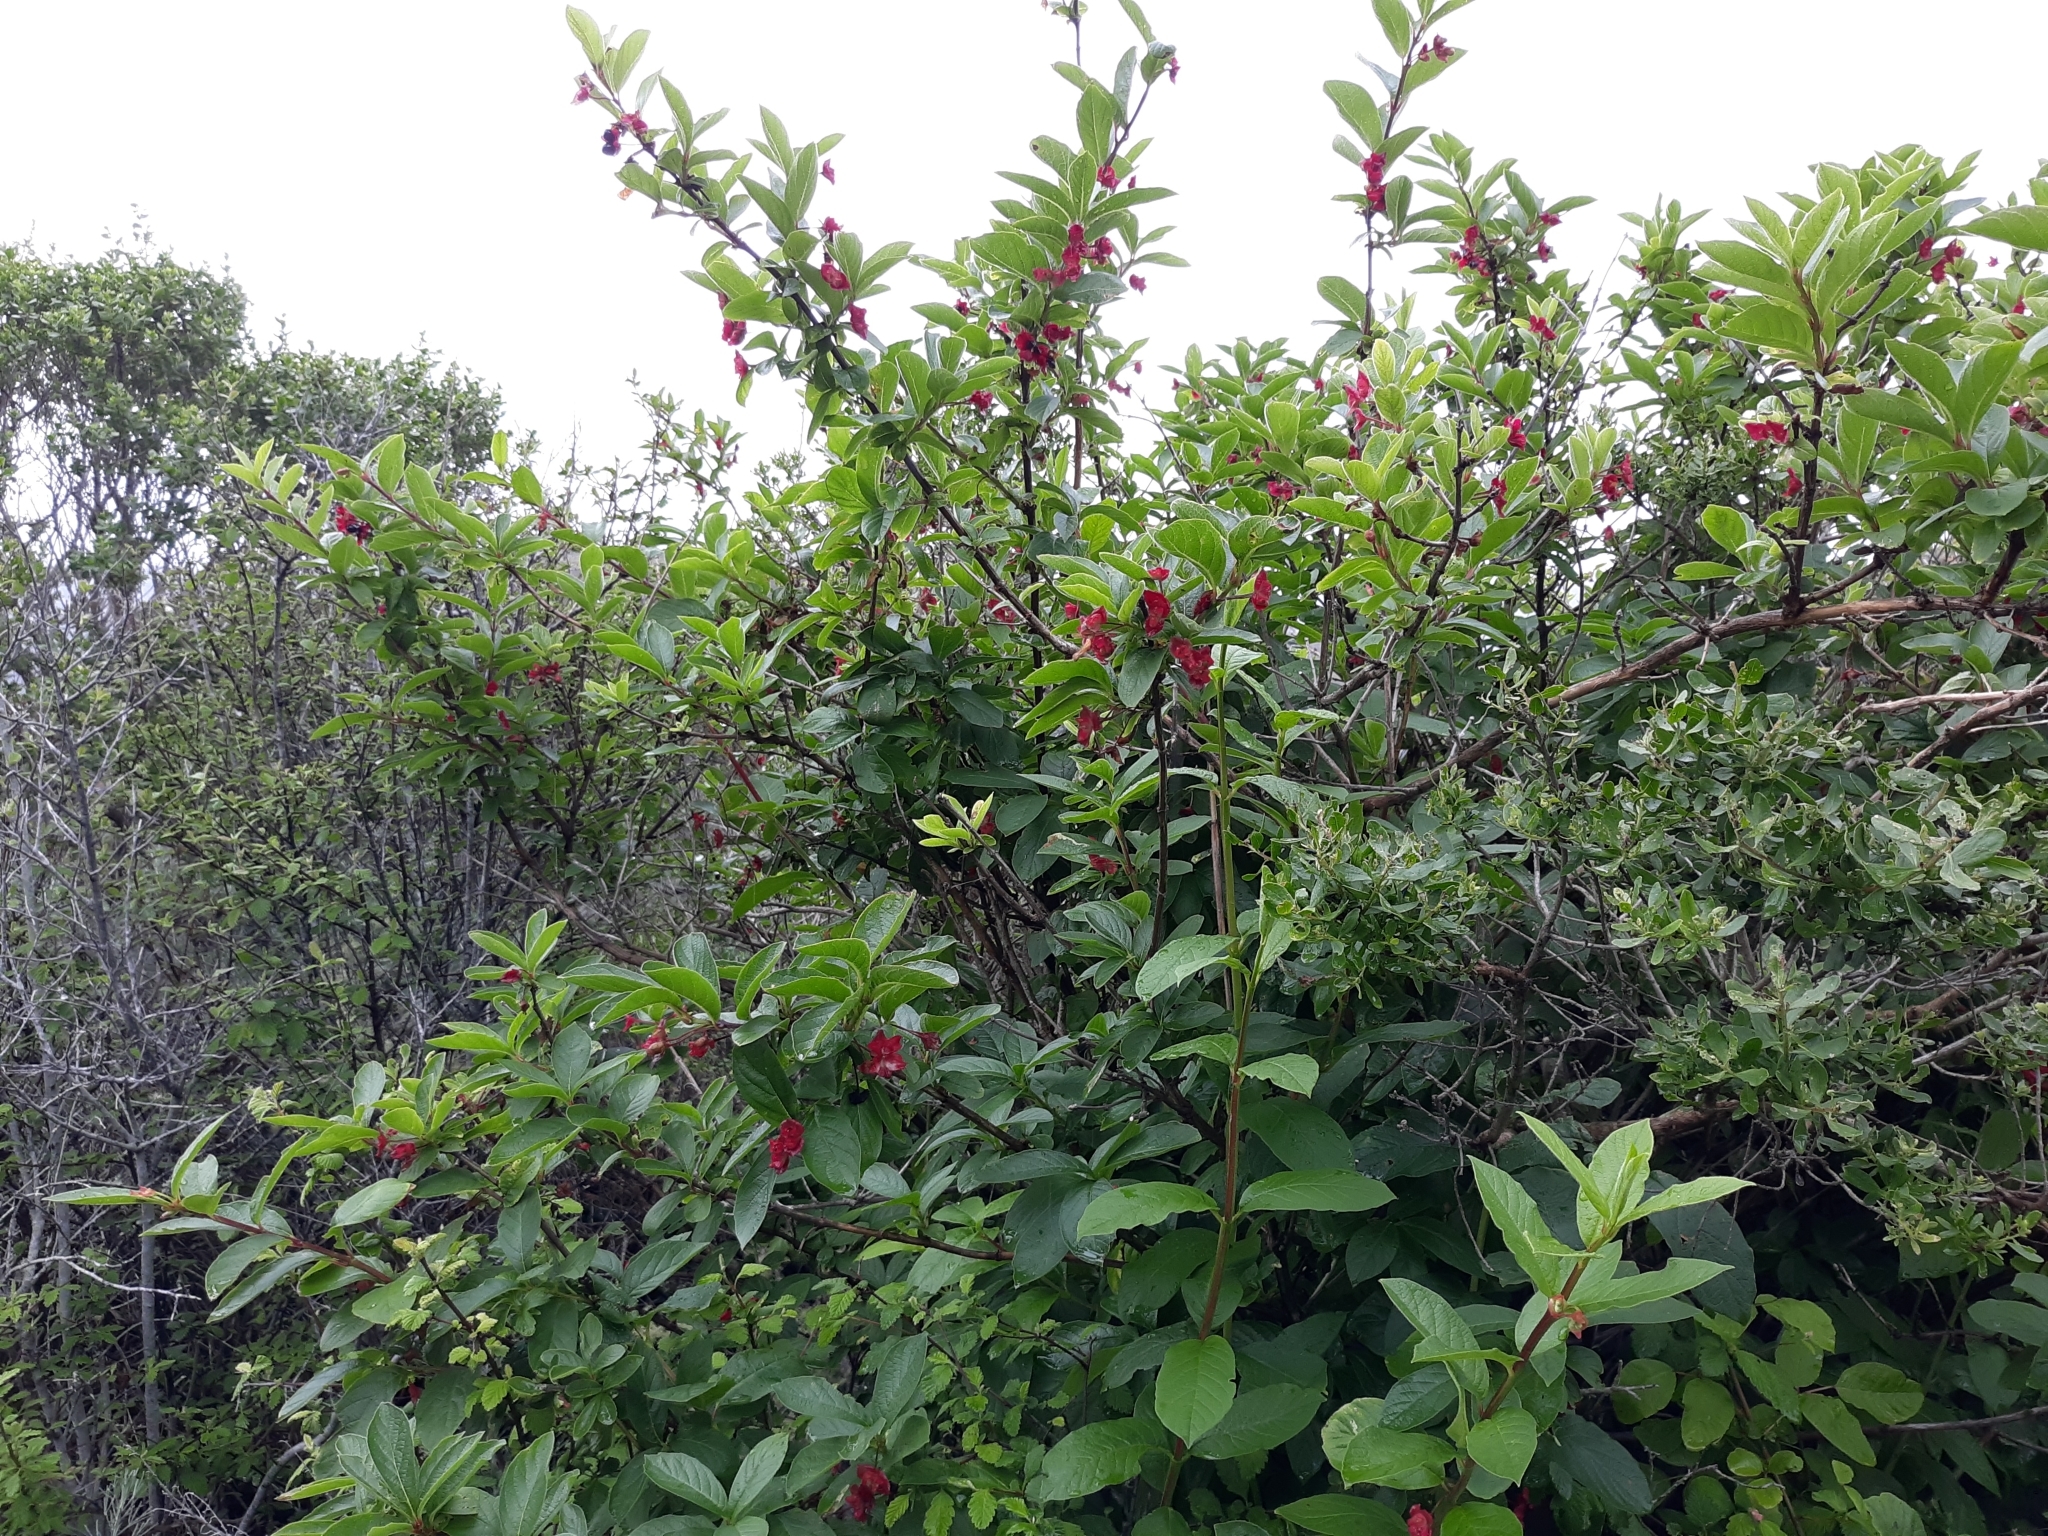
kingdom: Plantae
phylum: Tracheophyta
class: Magnoliopsida
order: Dipsacales
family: Caprifoliaceae
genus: Lonicera
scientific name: Lonicera involucrata
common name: Californian honeysuckle
